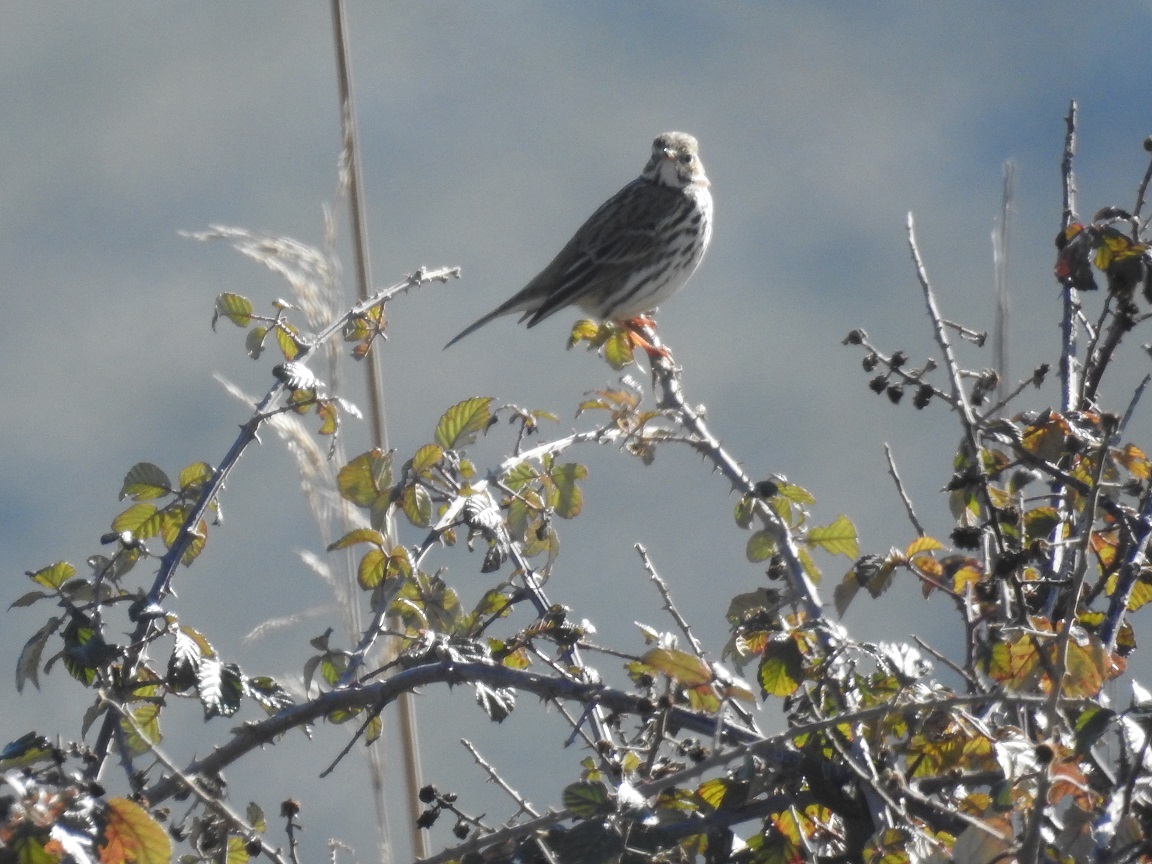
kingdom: Animalia
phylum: Chordata
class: Aves
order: Passeriformes
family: Motacillidae
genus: Anthus
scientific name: Anthus pratensis
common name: Meadow pipit
